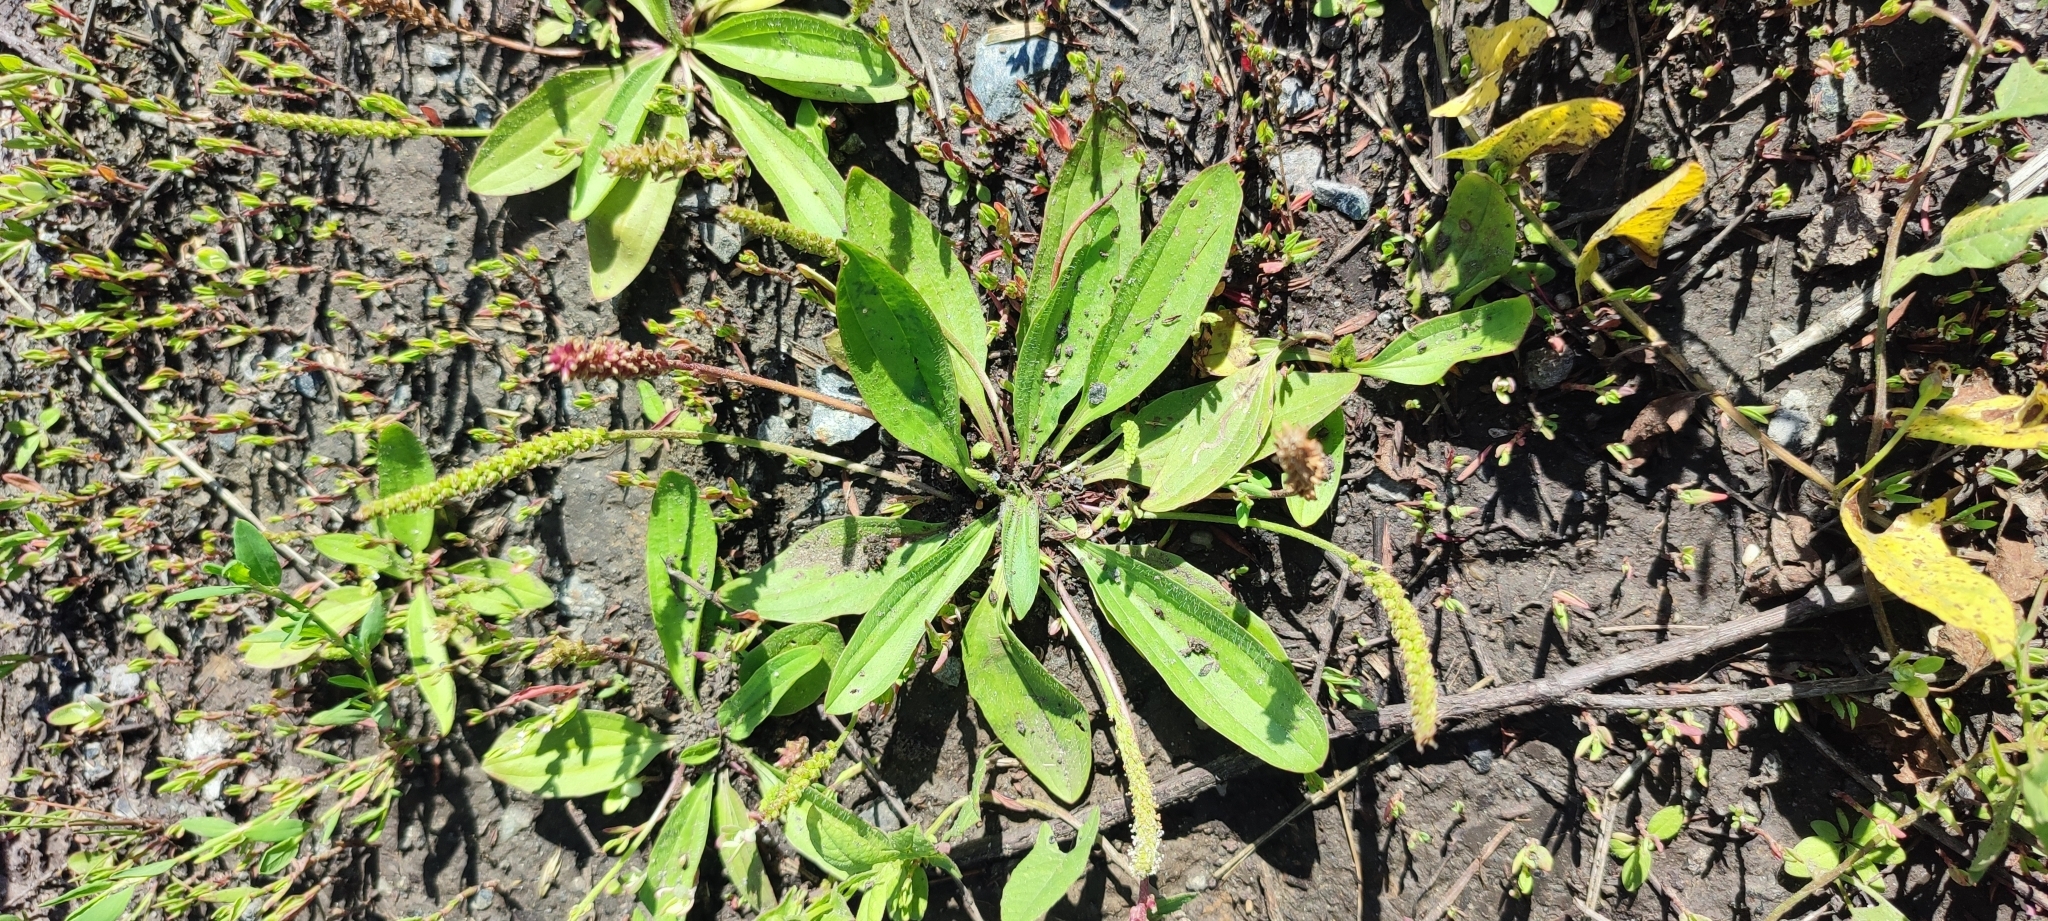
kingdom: Plantae
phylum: Tracheophyta
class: Magnoliopsida
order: Lamiales
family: Plantaginaceae
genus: Plantago
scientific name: Plantago depressa
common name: Depressed plantain
